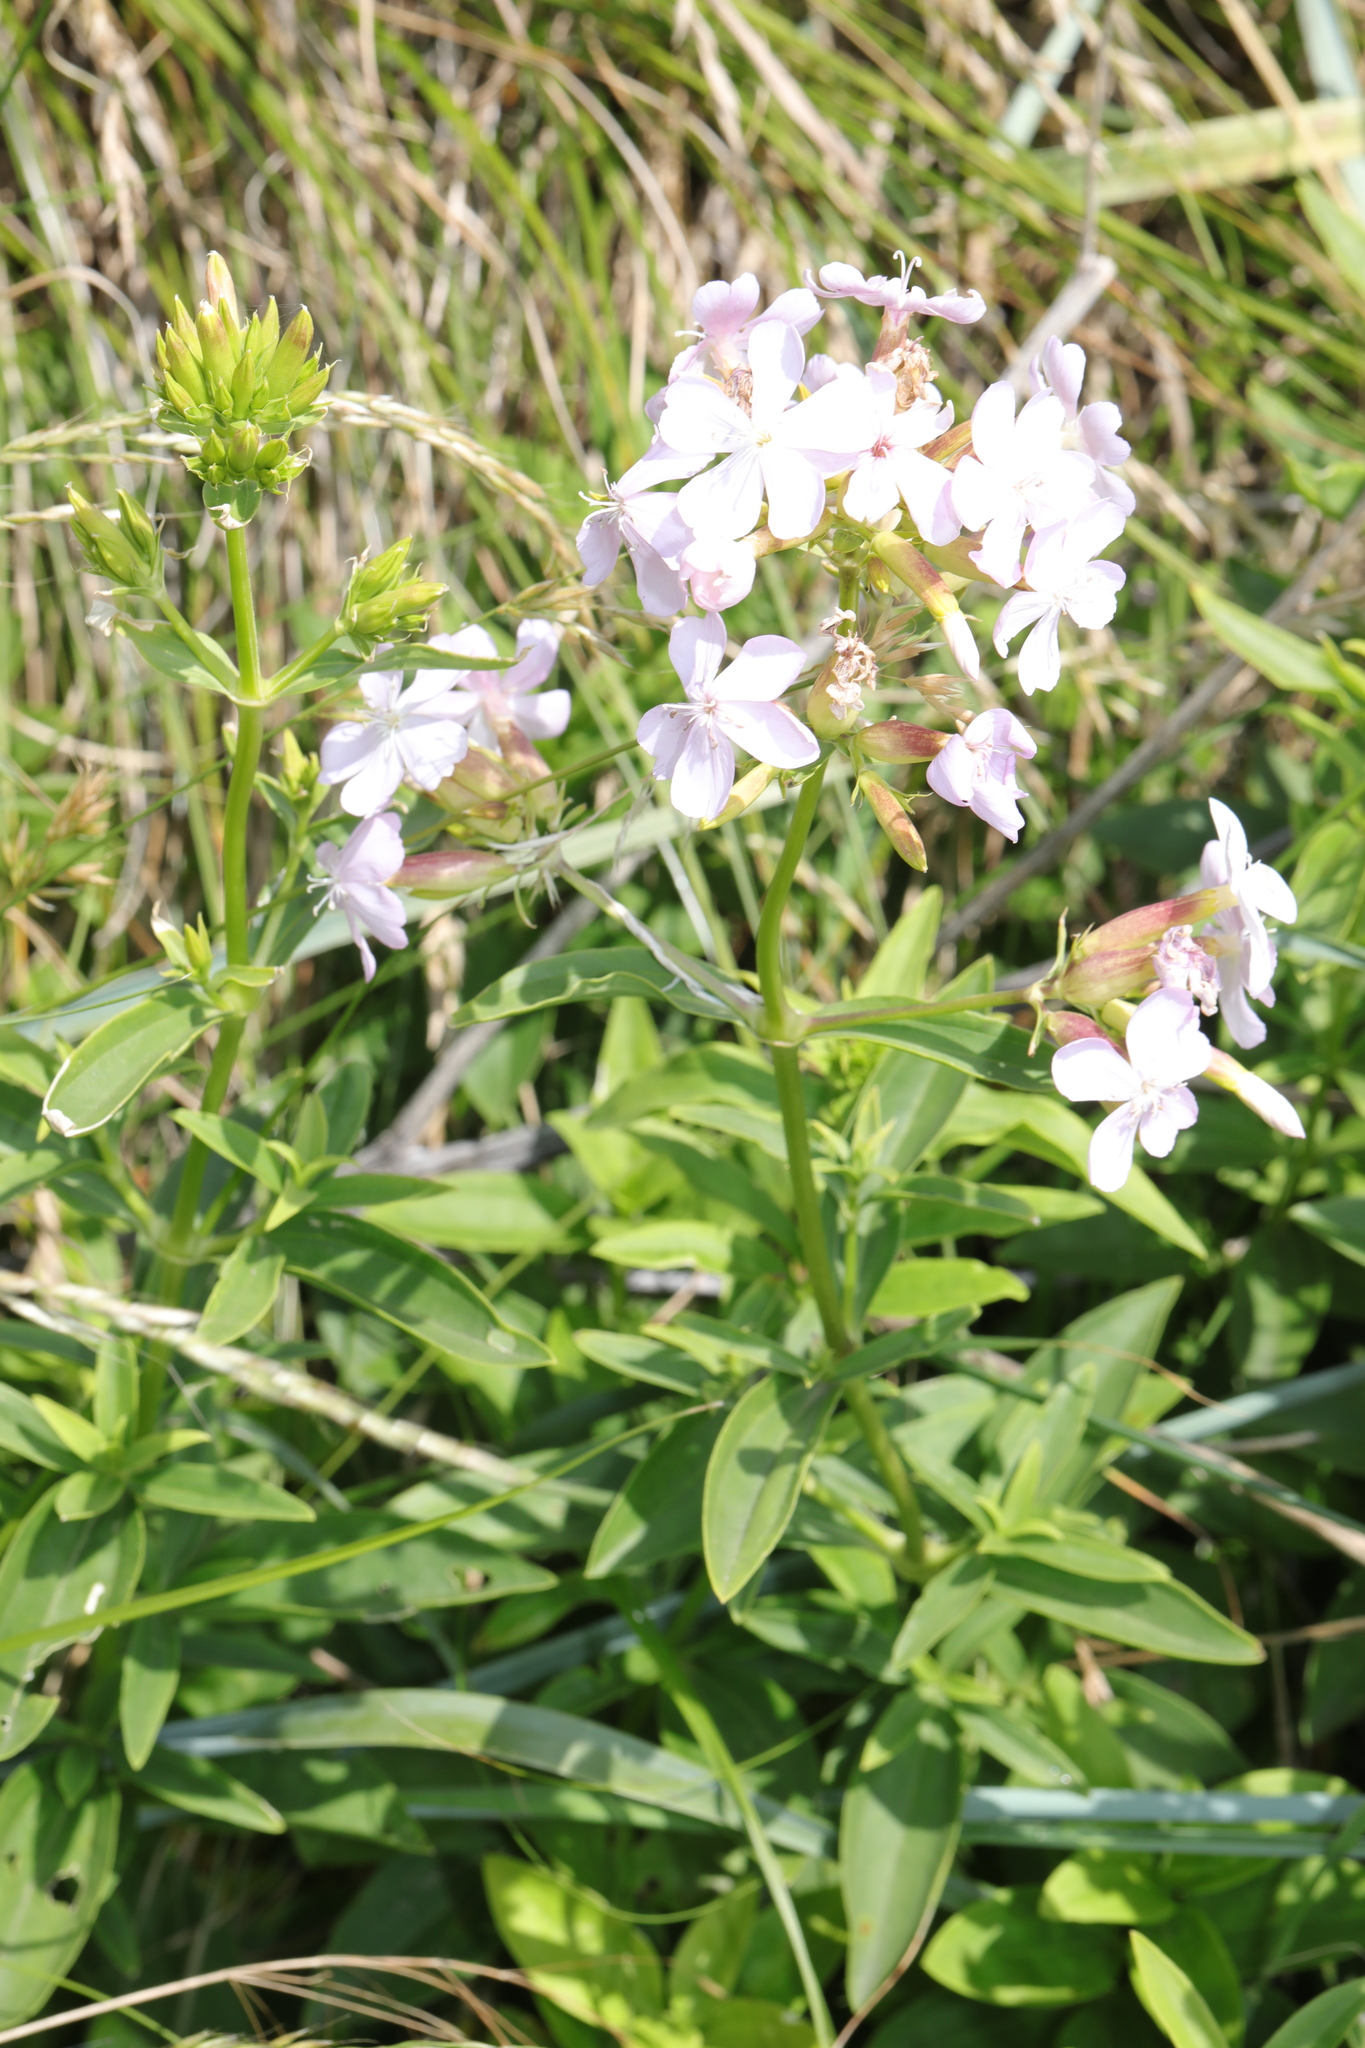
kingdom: Plantae
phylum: Tracheophyta
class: Magnoliopsida
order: Caryophyllales
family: Caryophyllaceae
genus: Saponaria
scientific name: Saponaria officinalis
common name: Soapwort
